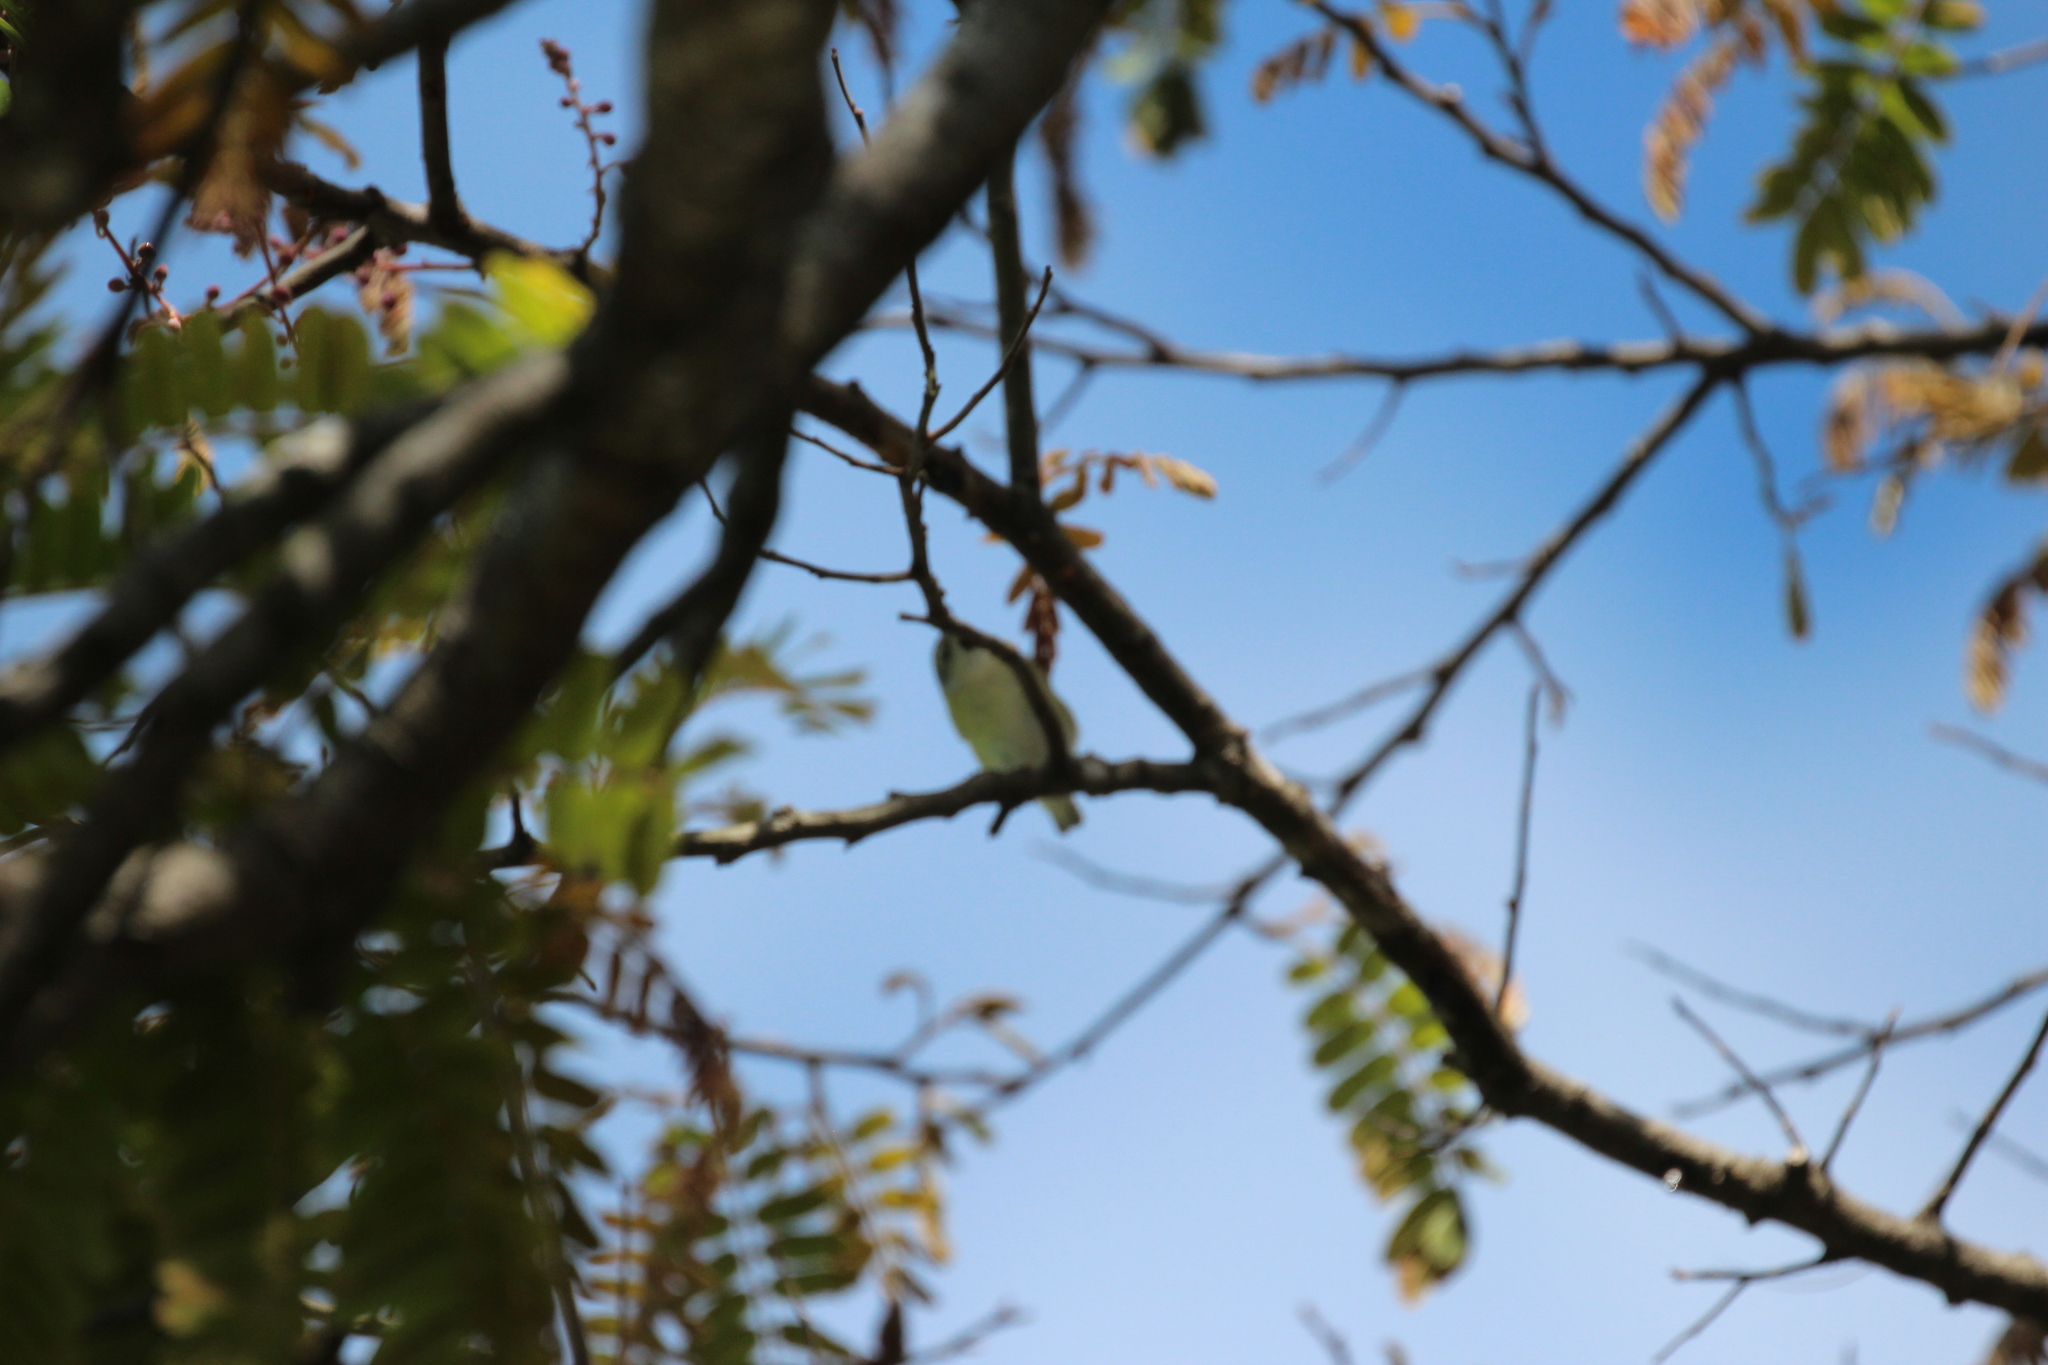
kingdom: Animalia
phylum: Chordata
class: Aves
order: Passeriformes
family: Parulidae
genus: Leiothlypis
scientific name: Leiothlypis peregrina
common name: Tennessee warbler
